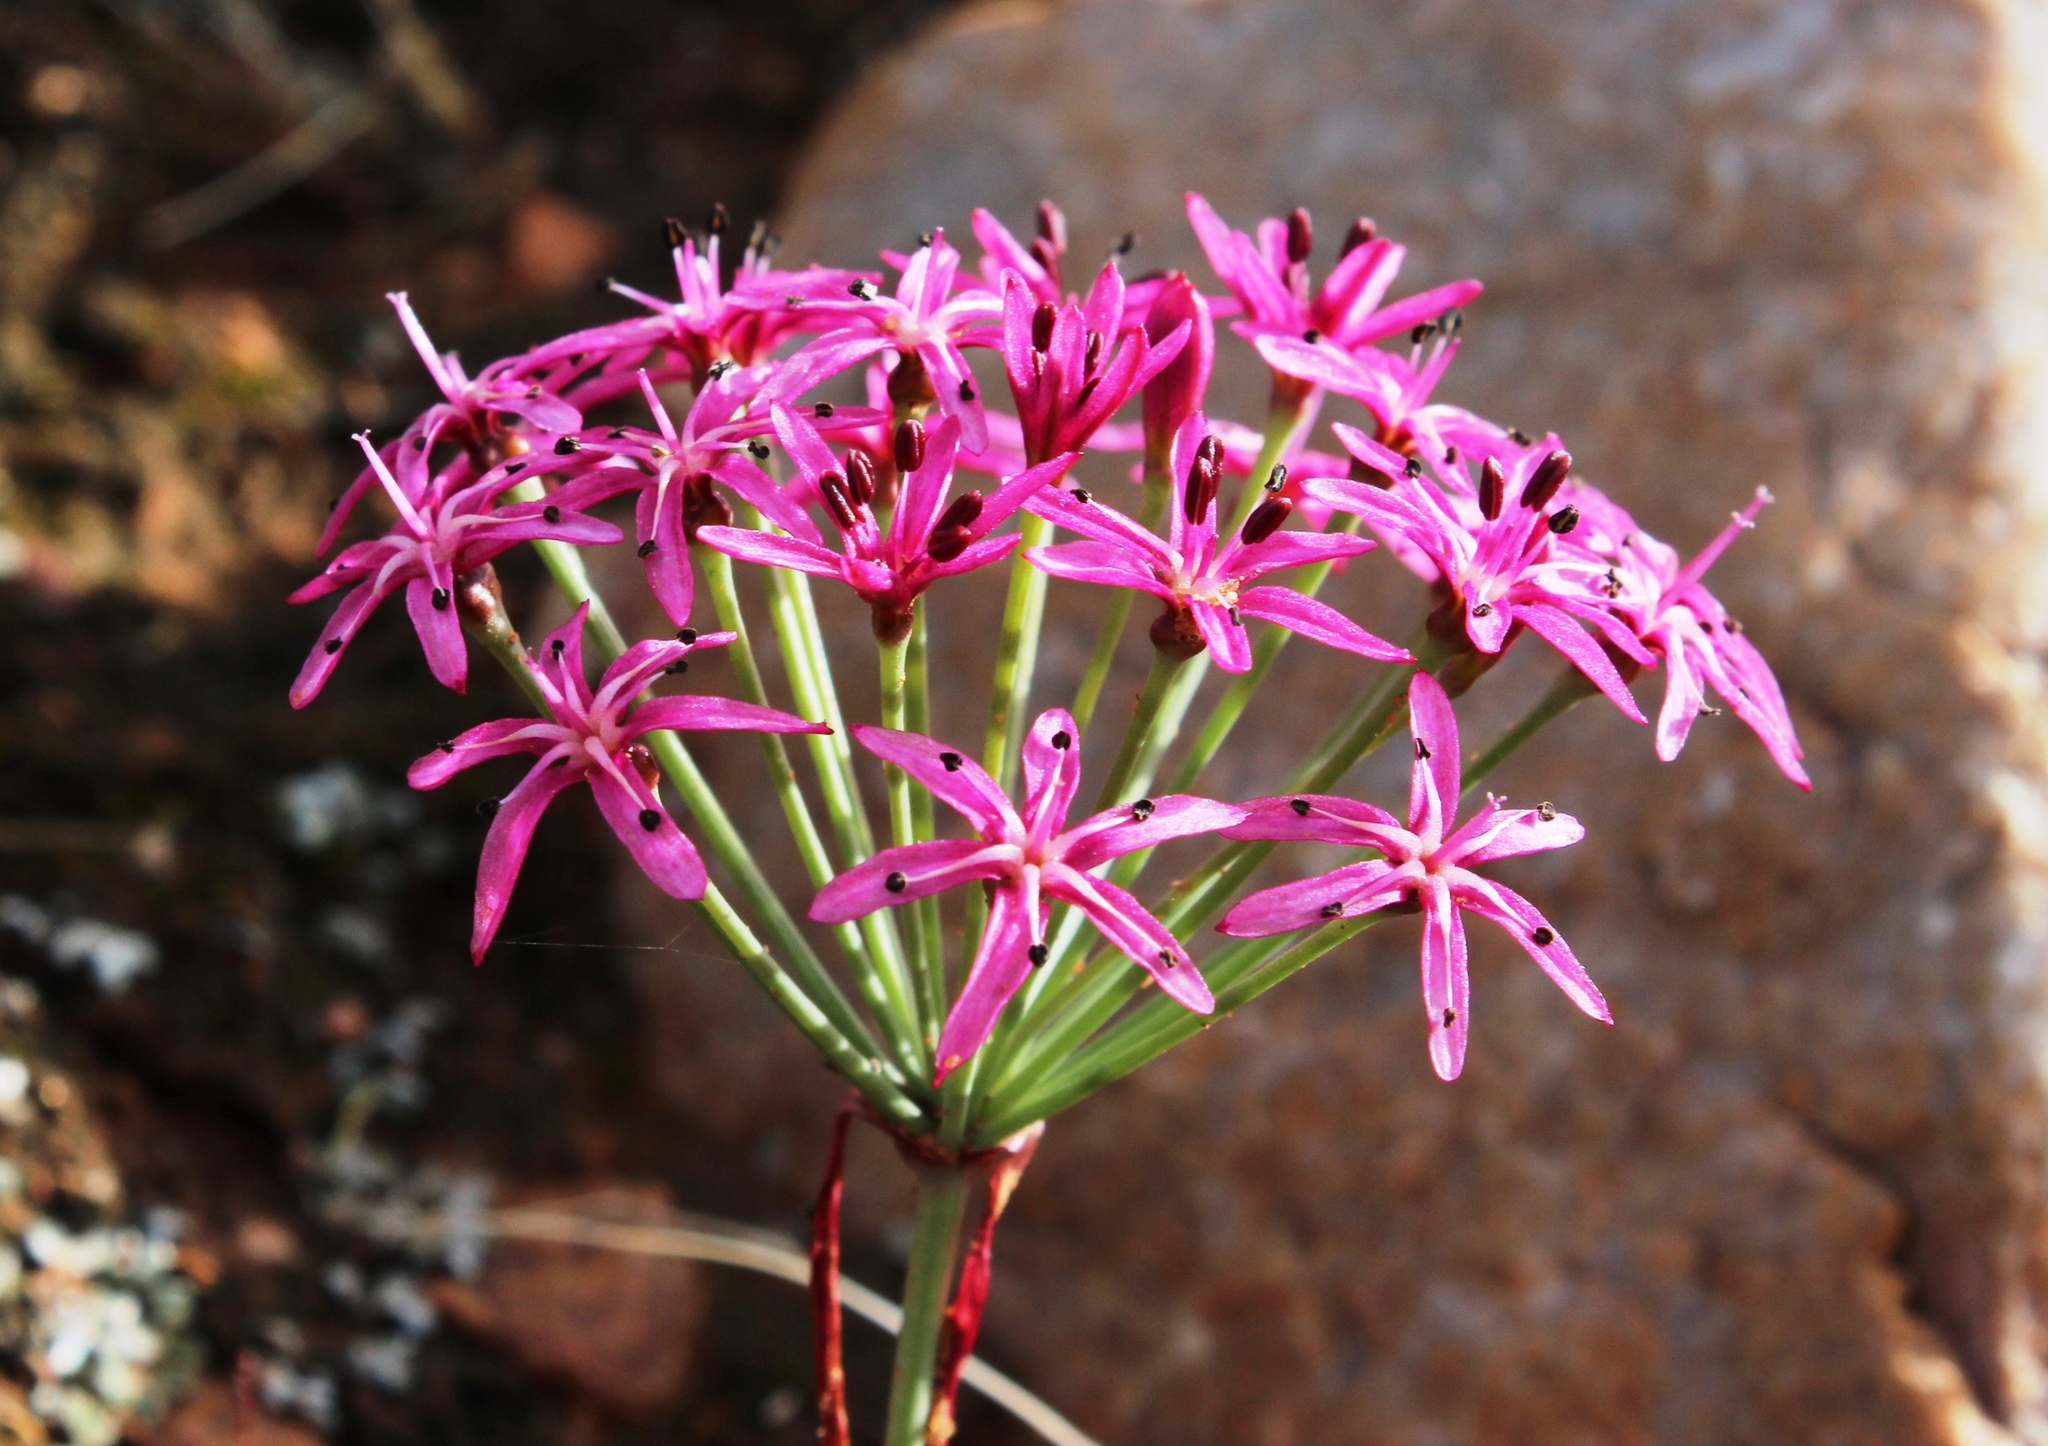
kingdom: Plantae
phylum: Tracheophyta
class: Liliopsida
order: Asparagales
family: Amaryllidaceae
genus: Hessea
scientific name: Hessea stellaris
